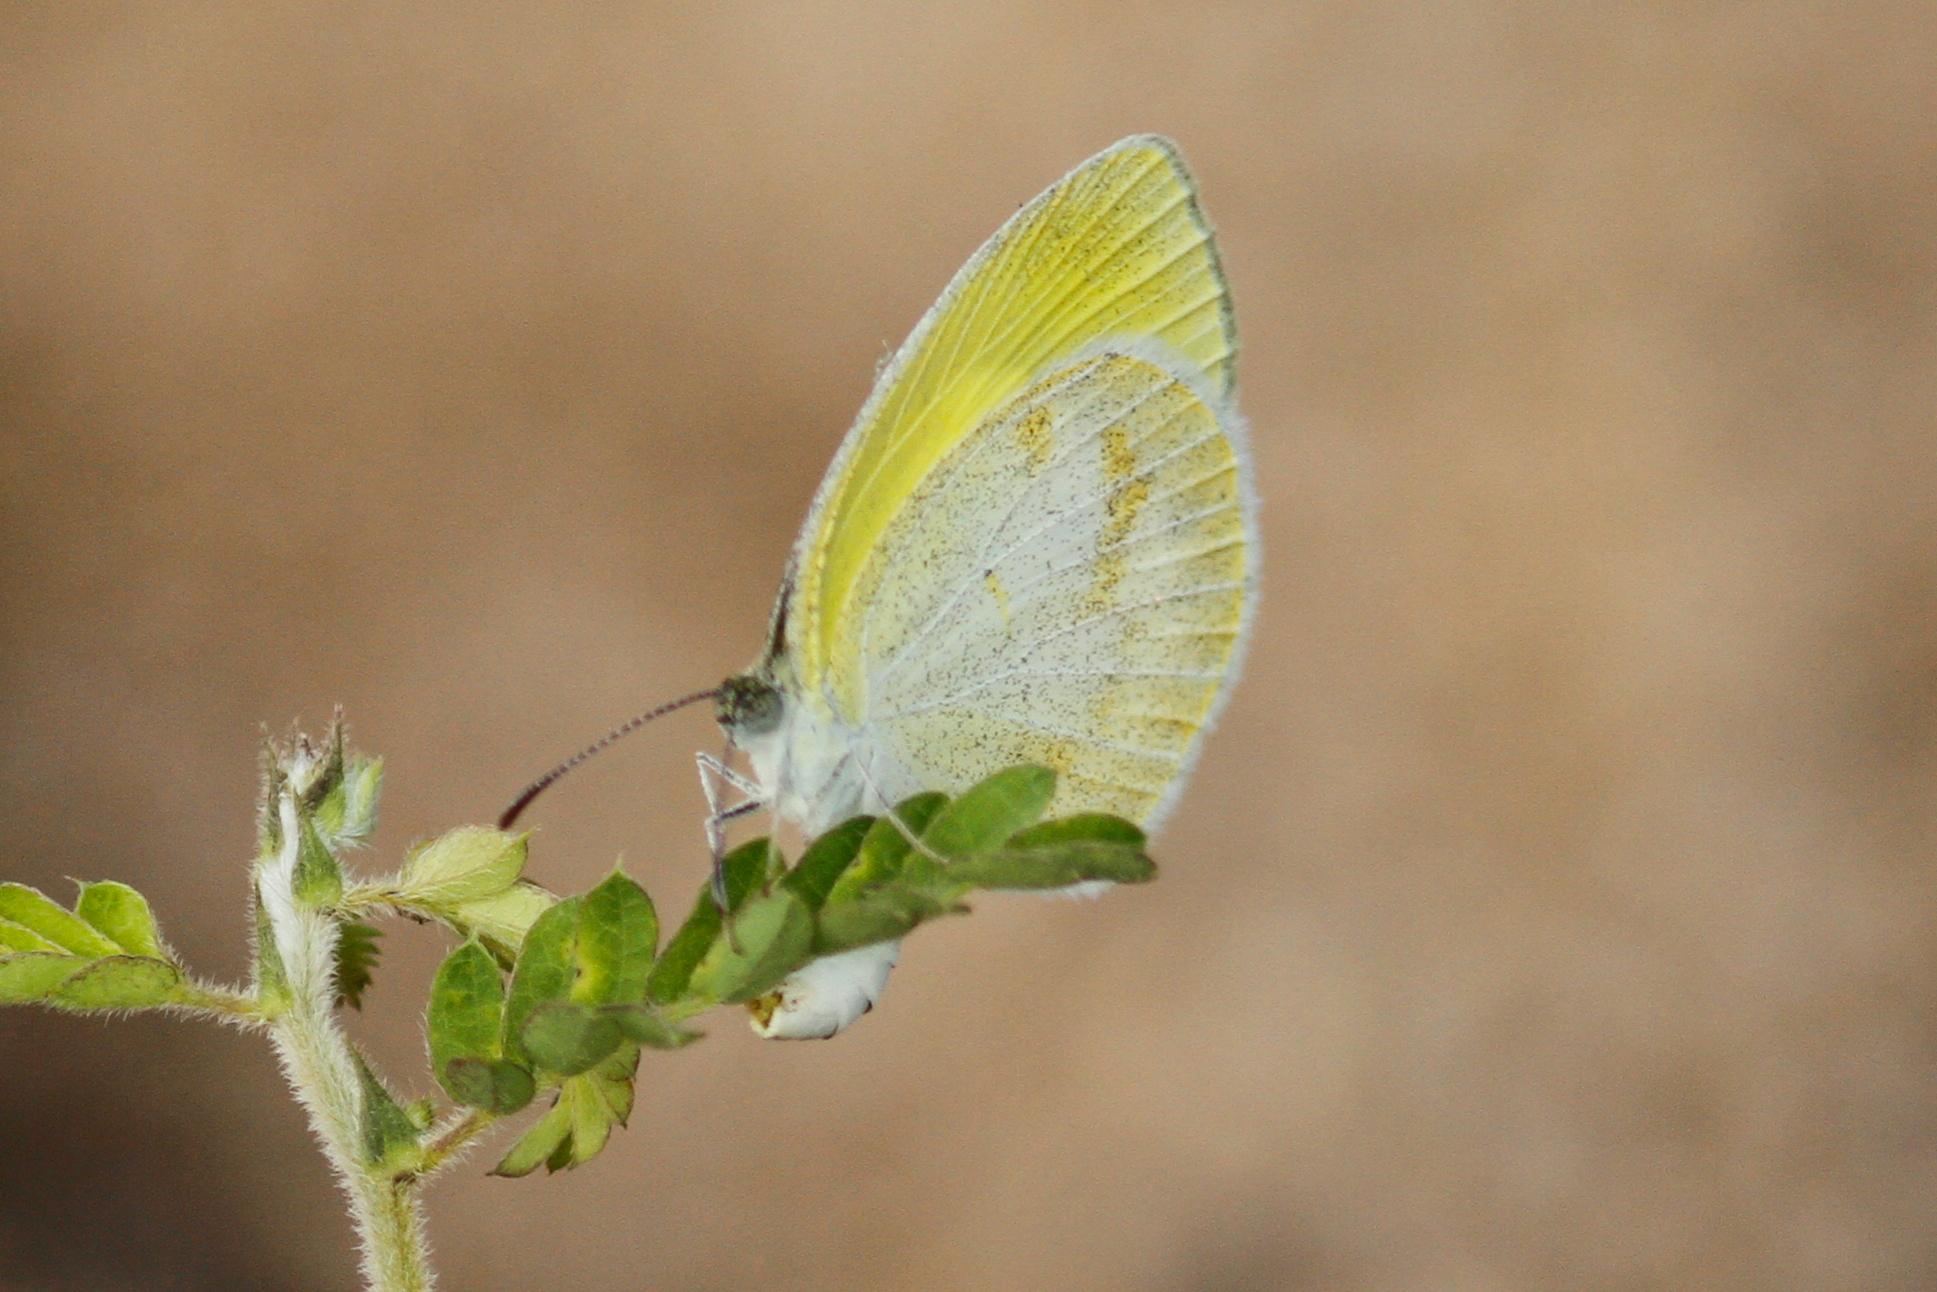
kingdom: Animalia
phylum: Arthropoda
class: Insecta
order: Lepidoptera
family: Pieridae
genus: Eurema
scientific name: Eurema elathea
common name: Banded yellow
